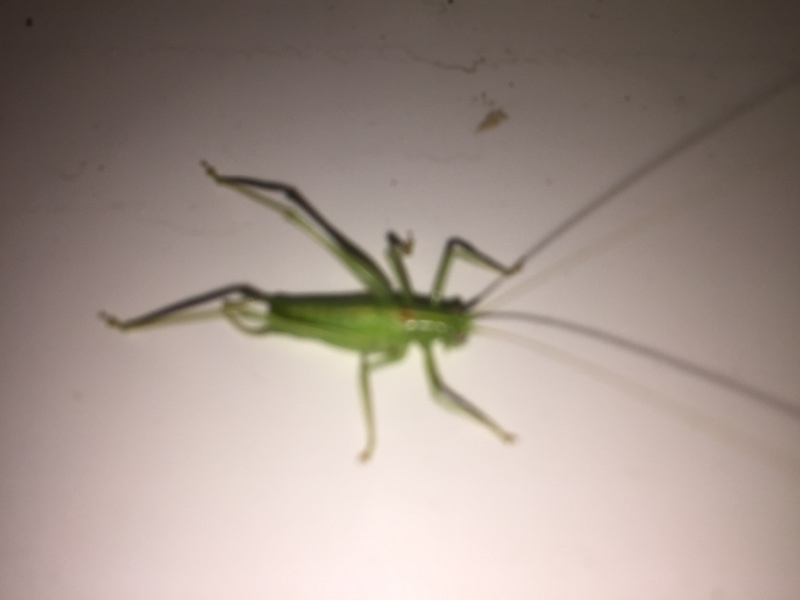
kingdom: Animalia
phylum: Arthropoda
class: Insecta
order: Orthoptera
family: Tettigoniidae
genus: Meconema
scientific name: Meconema meridionale
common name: Southern oak bush-cricket
